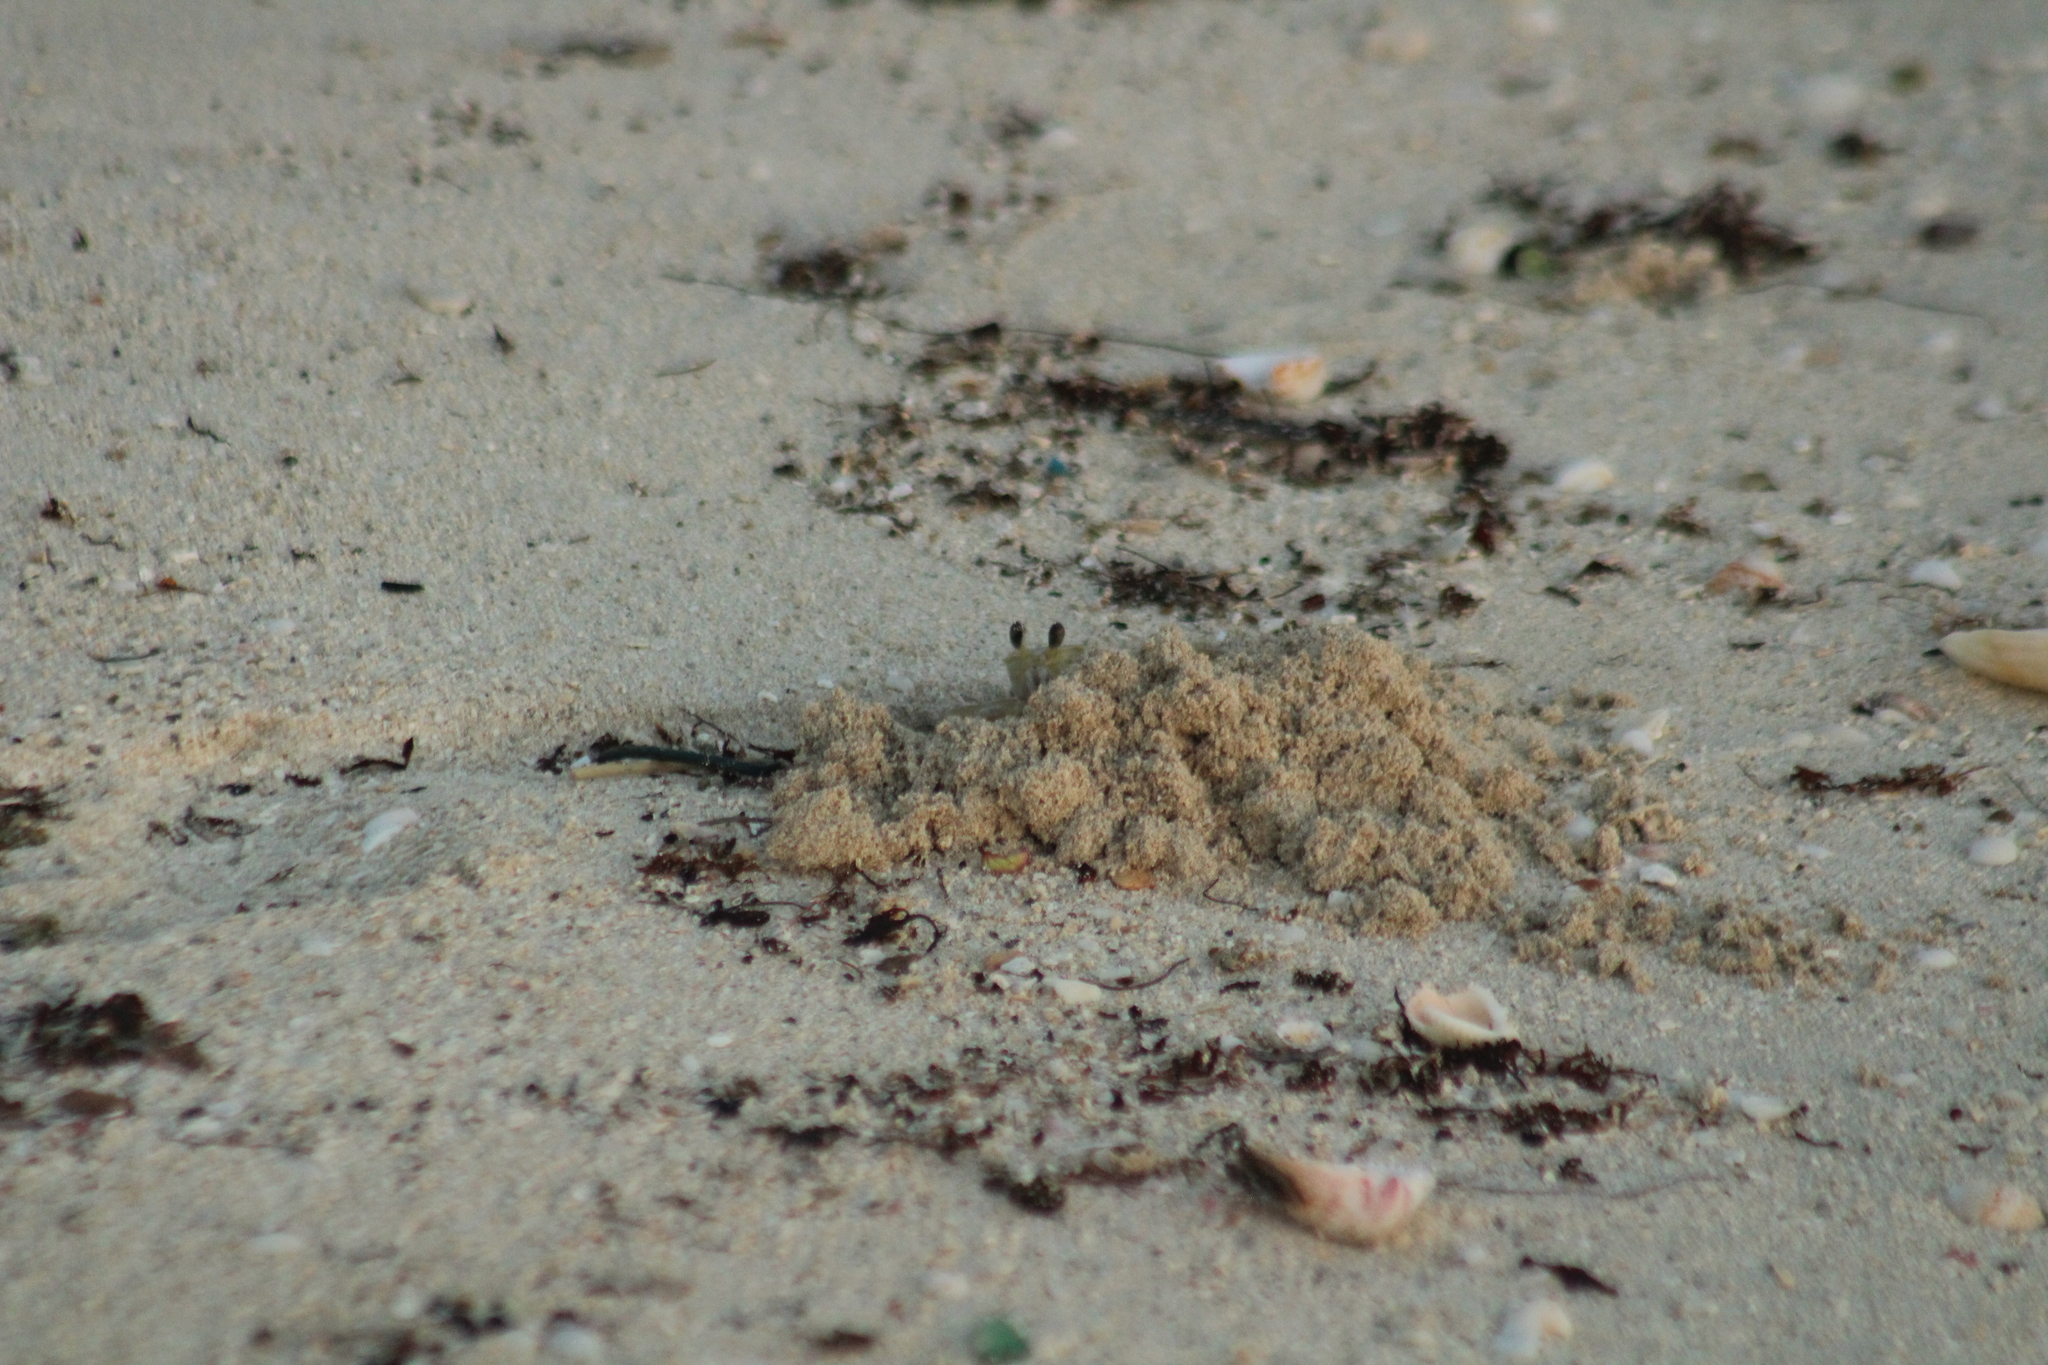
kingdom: Animalia
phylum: Arthropoda
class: Malacostraca
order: Decapoda
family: Ocypodidae
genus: Ocypode
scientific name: Ocypode quadrata
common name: Ghost crab
